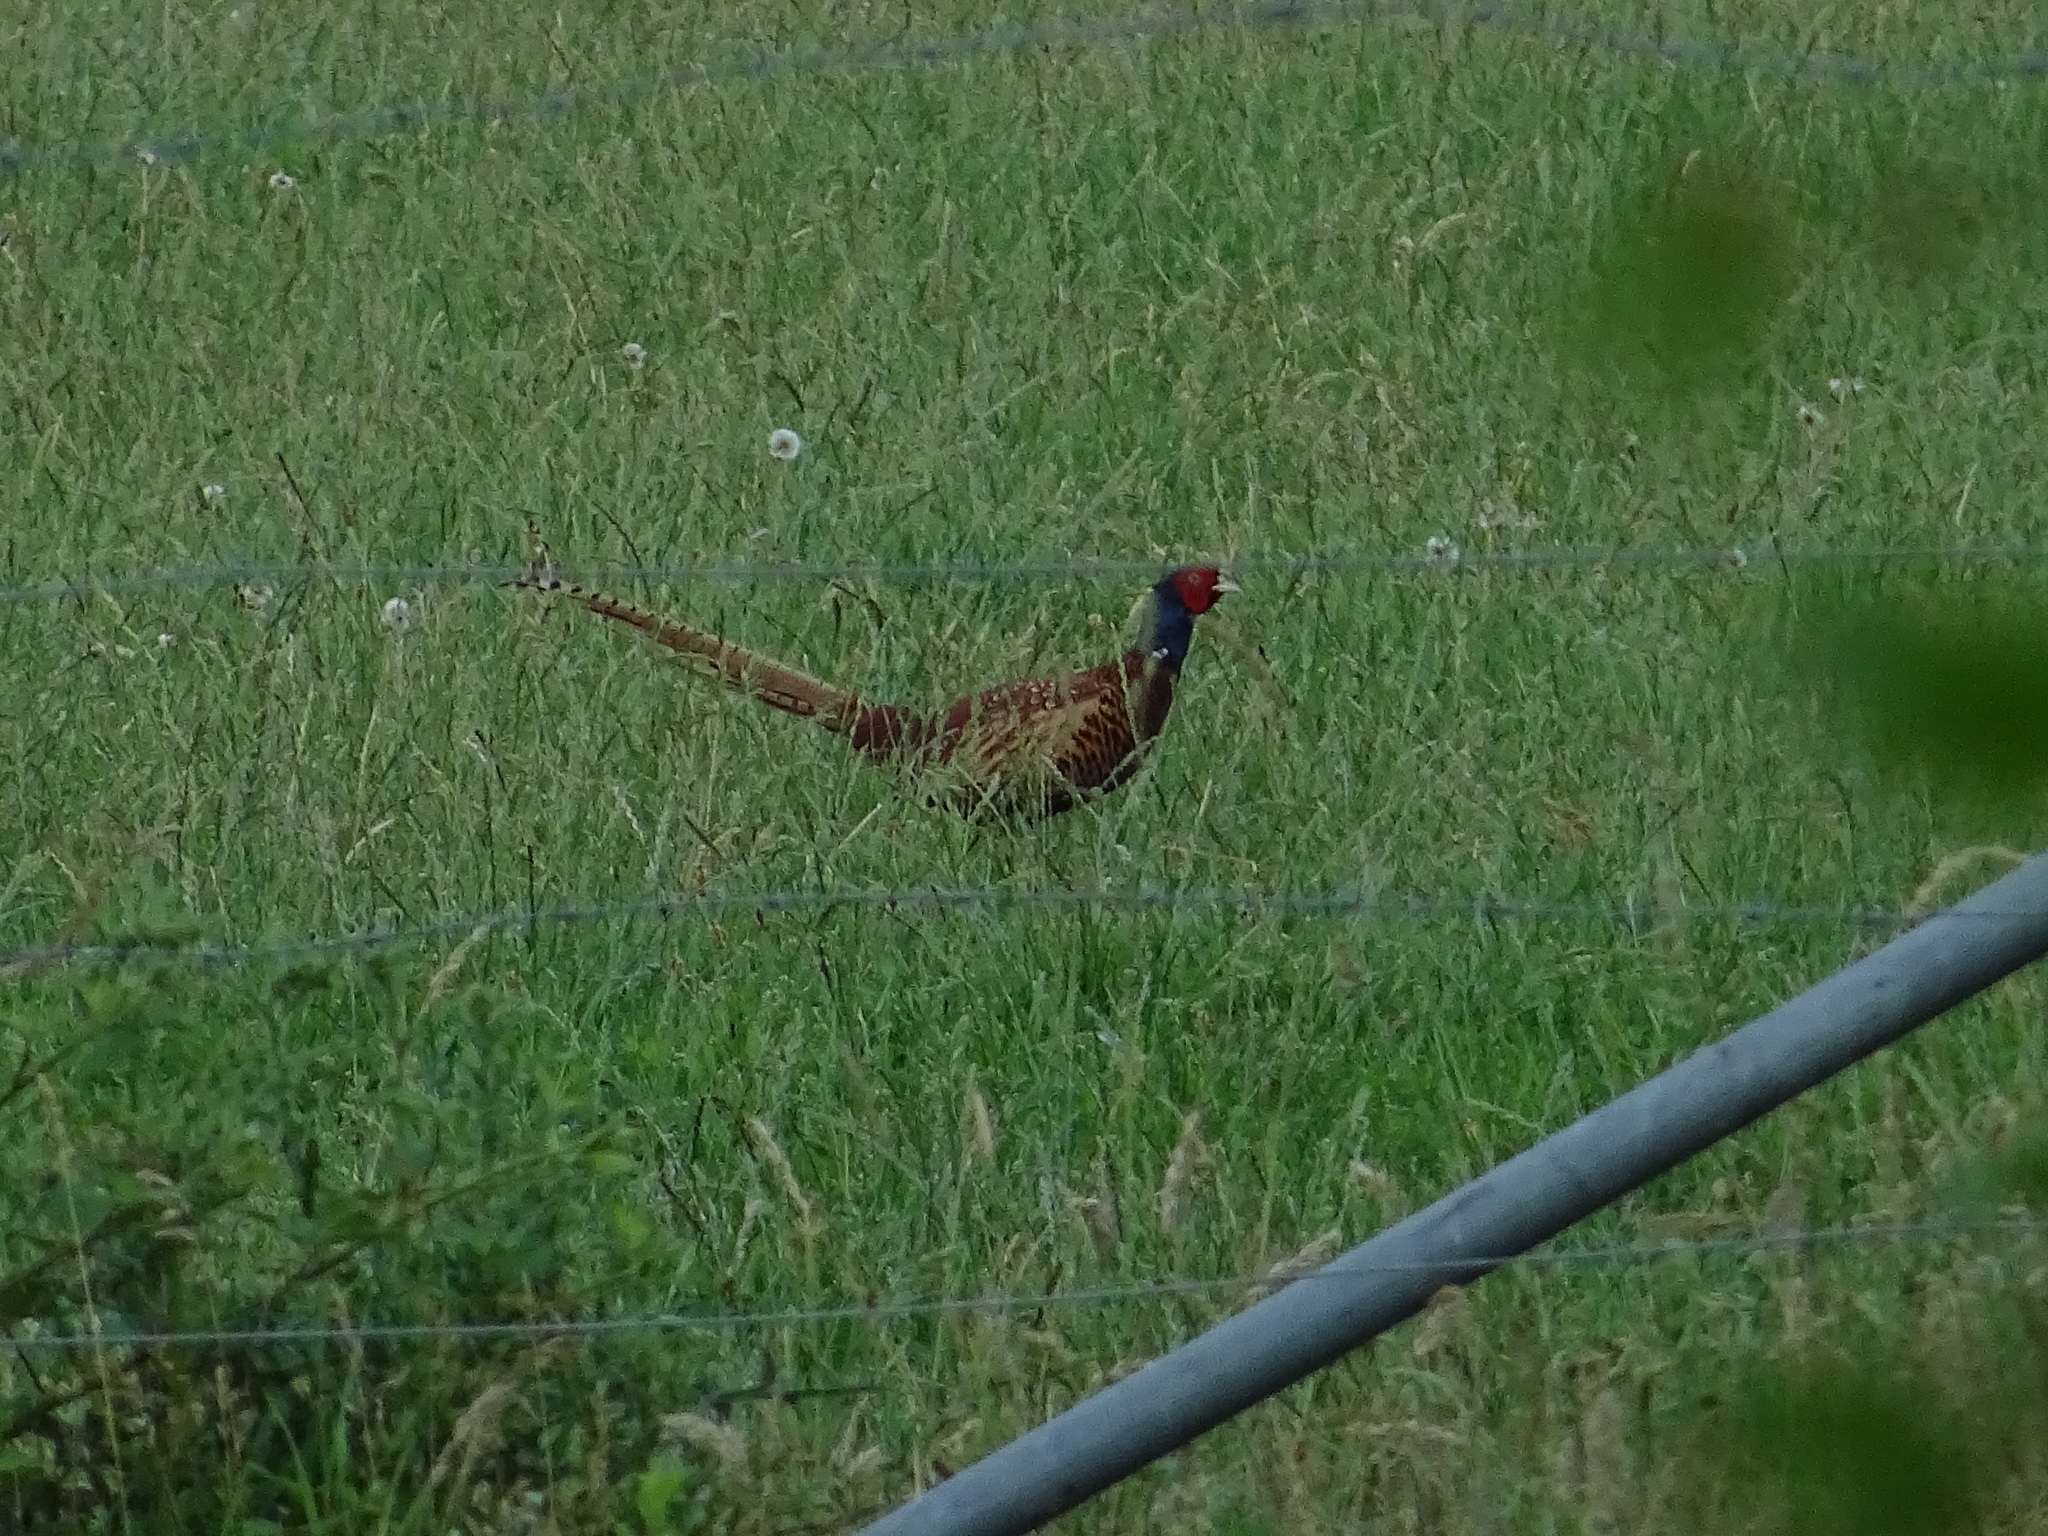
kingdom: Animalia
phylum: Chordata
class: Aves
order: Galliformes
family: Phasianidae
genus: Phasianus
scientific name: Phasianus colchicus
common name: Common pheasant
